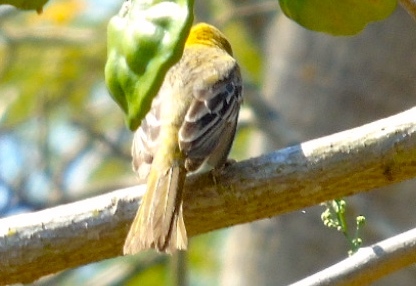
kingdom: Animalia
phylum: Chordata
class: Aves
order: Passeriformes
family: Icteridae
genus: Icterus
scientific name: Icterus
